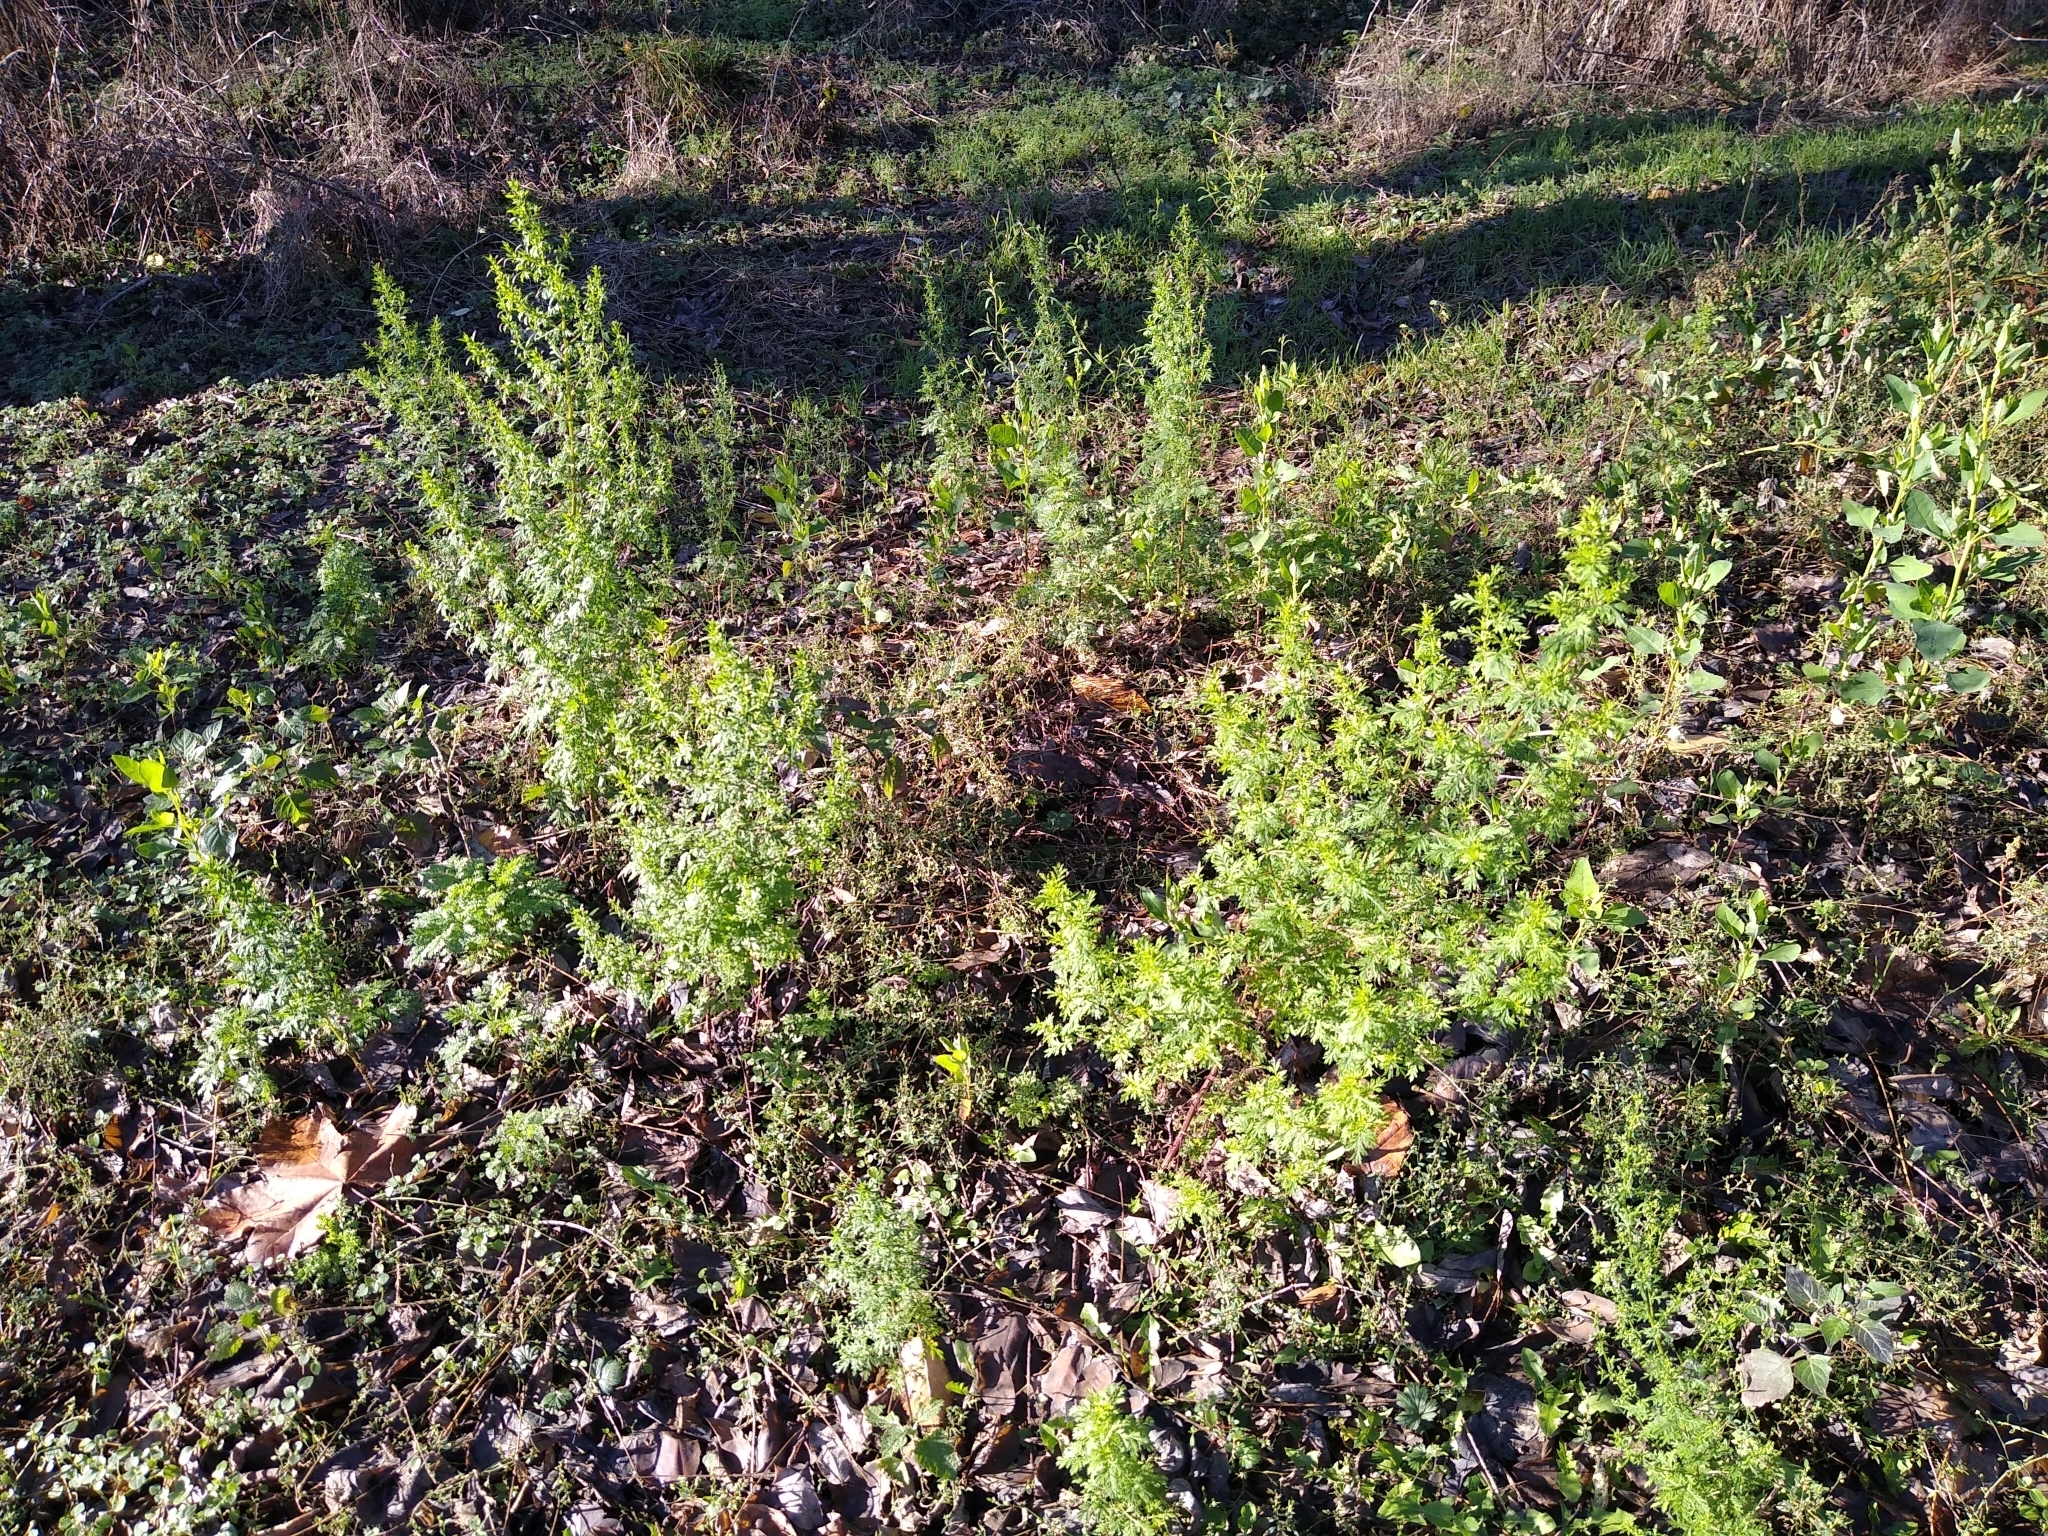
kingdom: Plantae
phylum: Tracheophyta
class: Magnoliopsida
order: Asterales
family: Asteraceae
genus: Artemisia
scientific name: Artemisia annua
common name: Sweet sagewort
